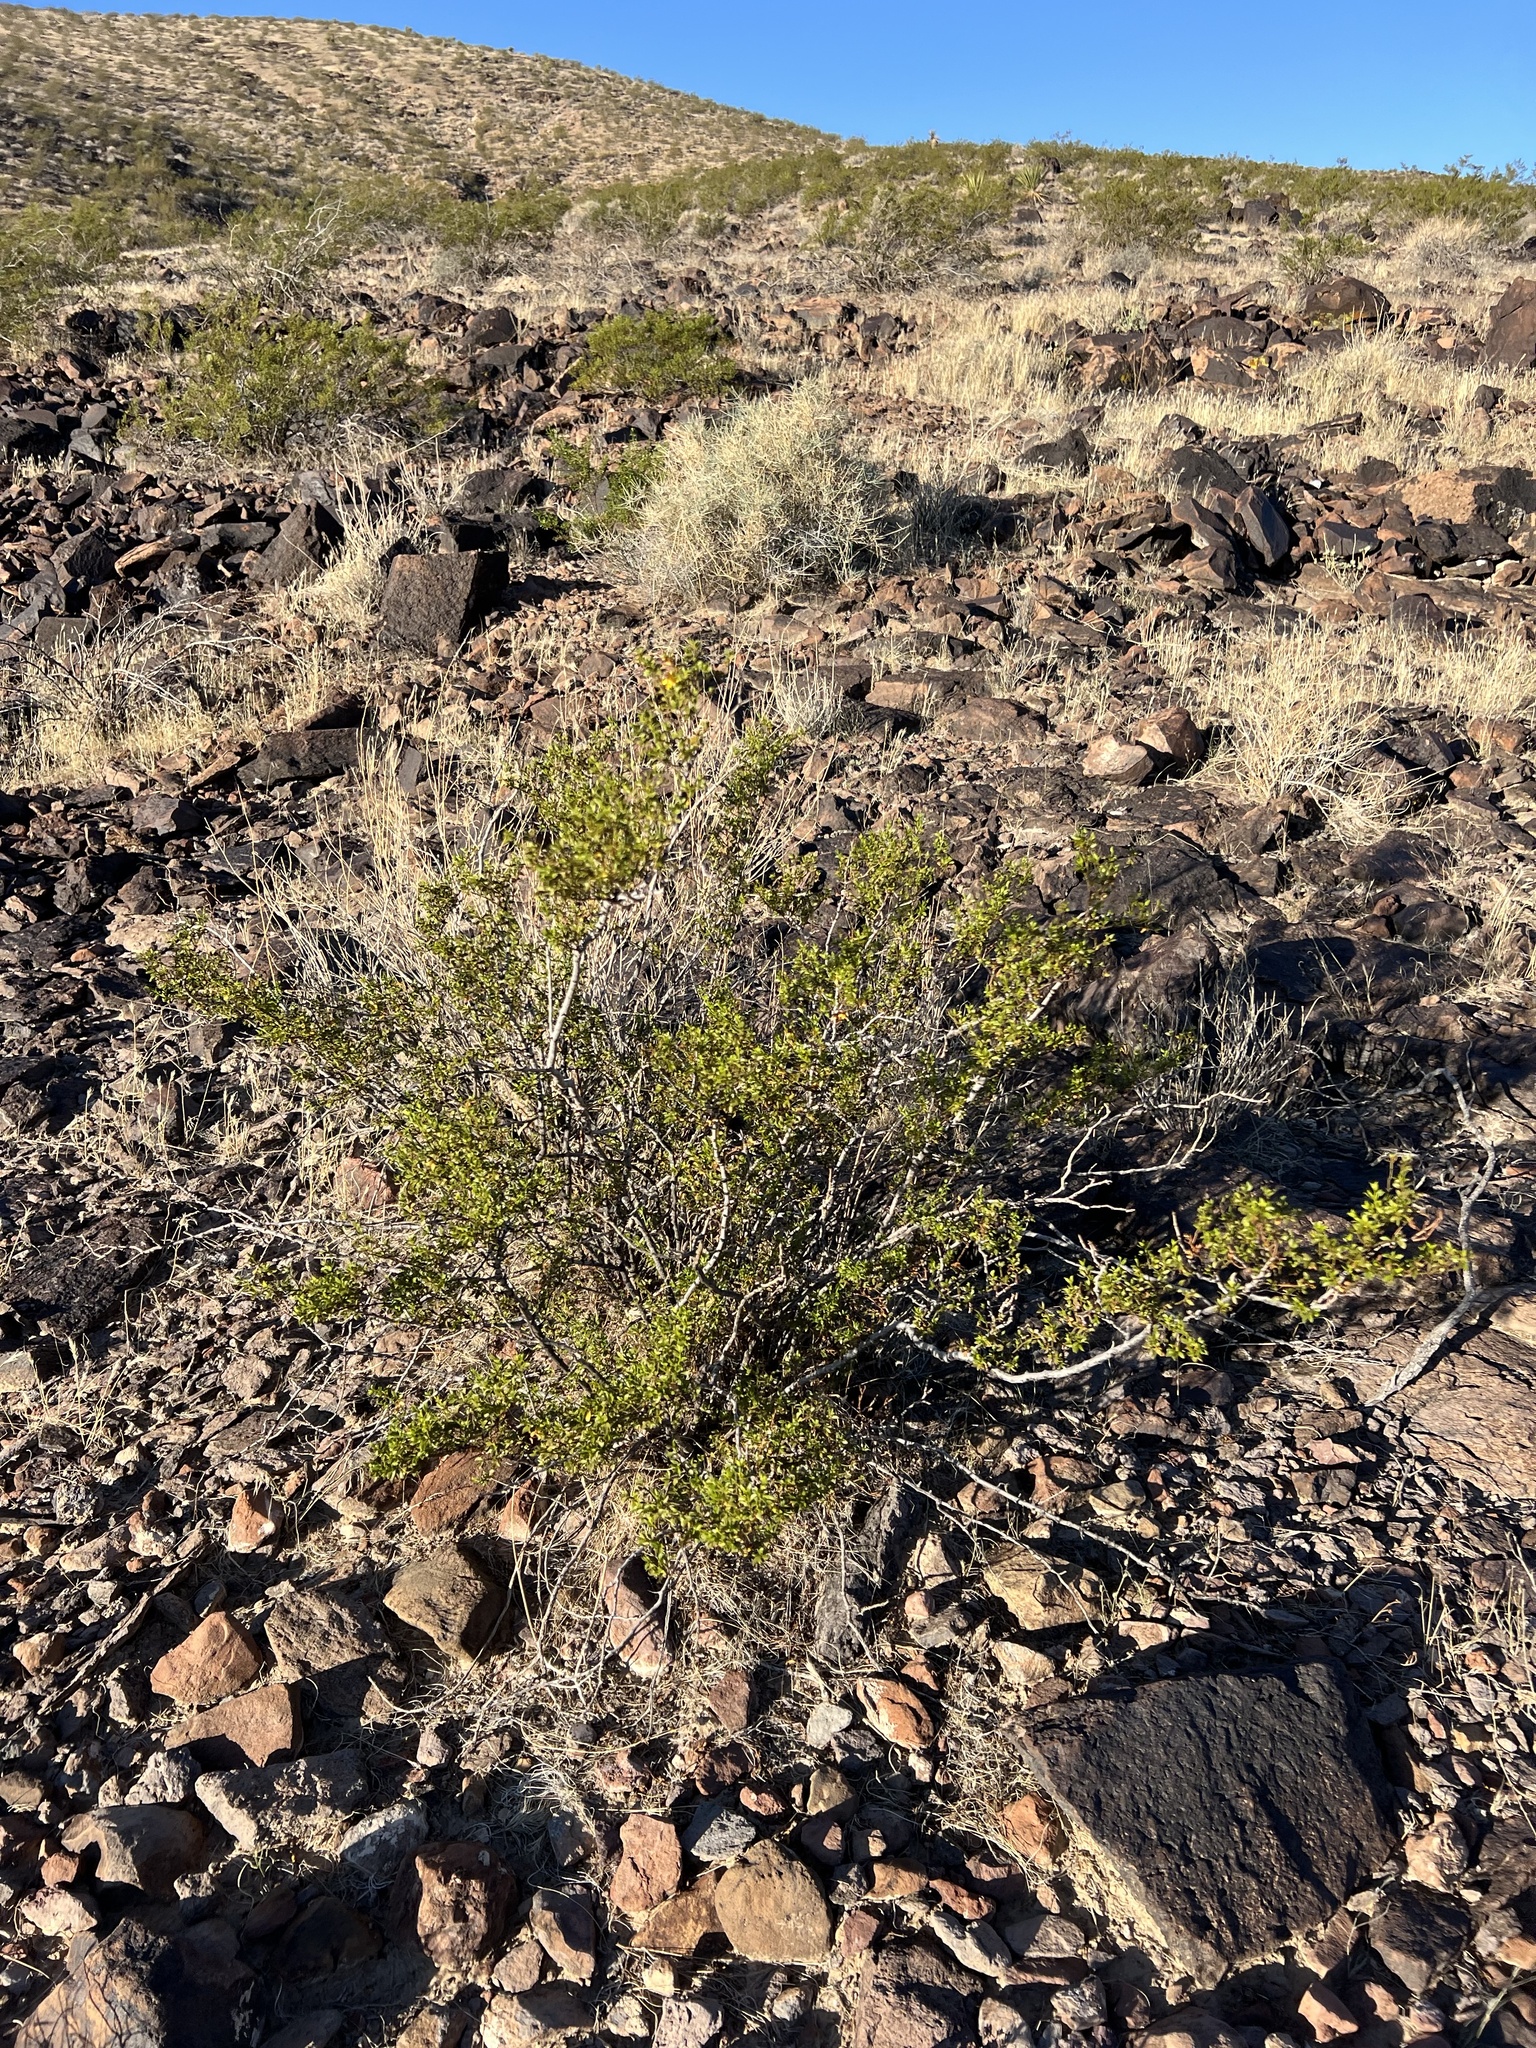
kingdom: Plantae
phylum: Tracheophyta
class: Magnoliopsida
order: Zygophyllales
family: Zygophyllaceae
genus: Larrea
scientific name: Larrea tridentata
